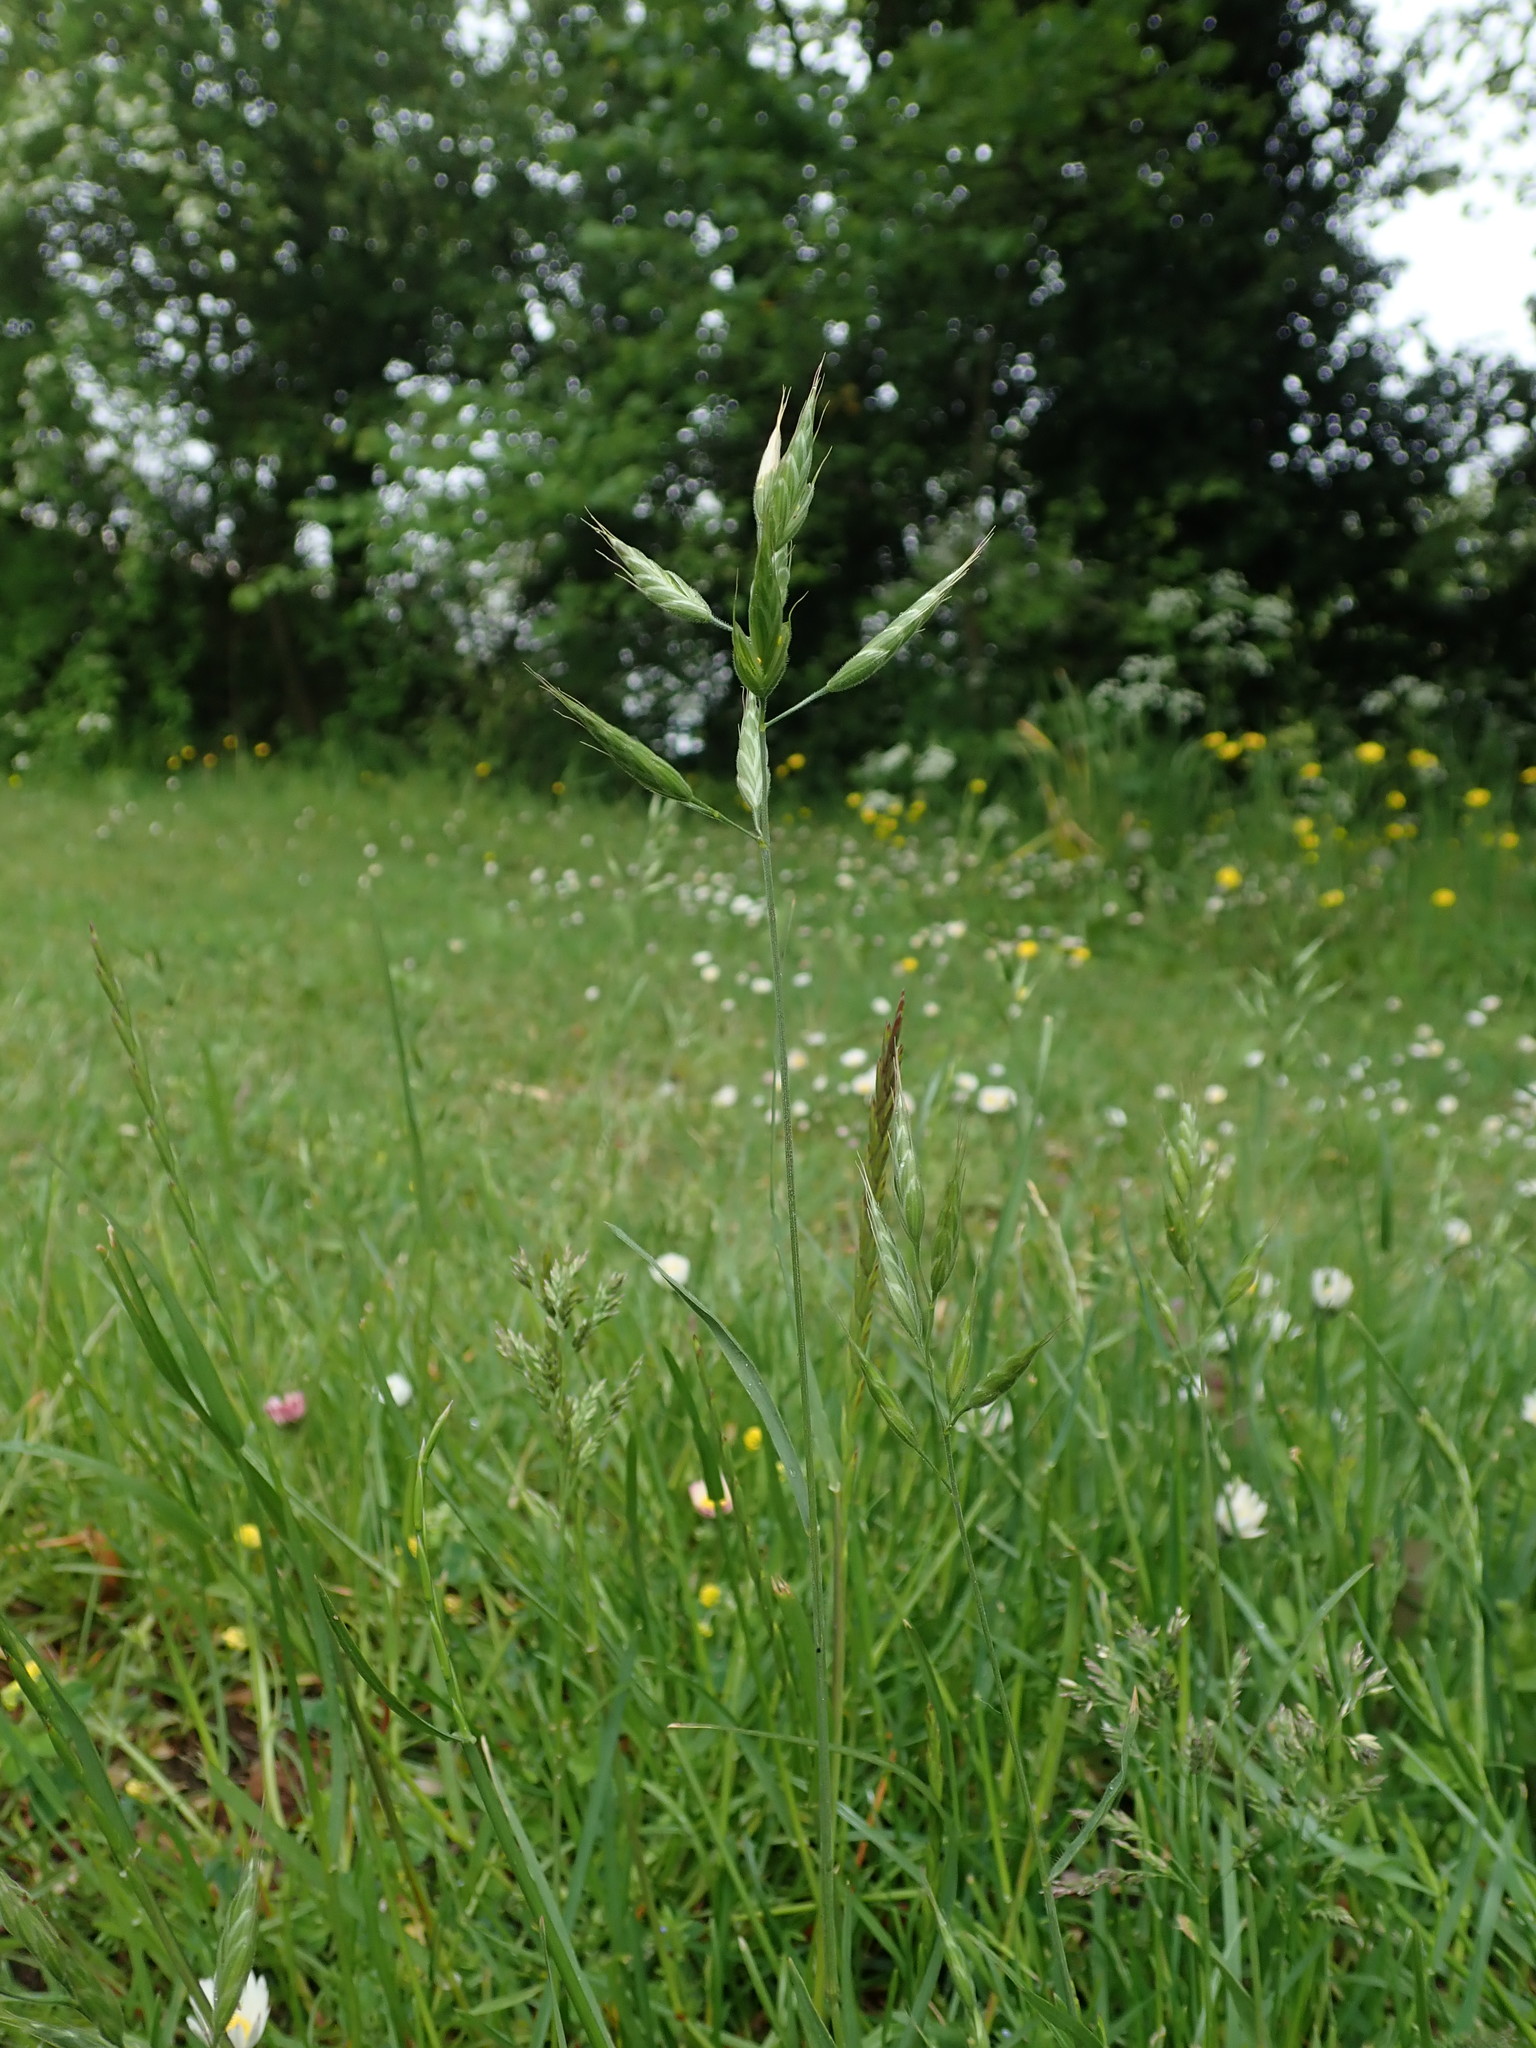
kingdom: Plantae
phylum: Tracheophyta
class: Liliopsida
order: Poales
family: Poaceae
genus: Bromus
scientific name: Bromus hordeaceus
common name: Soft brome
